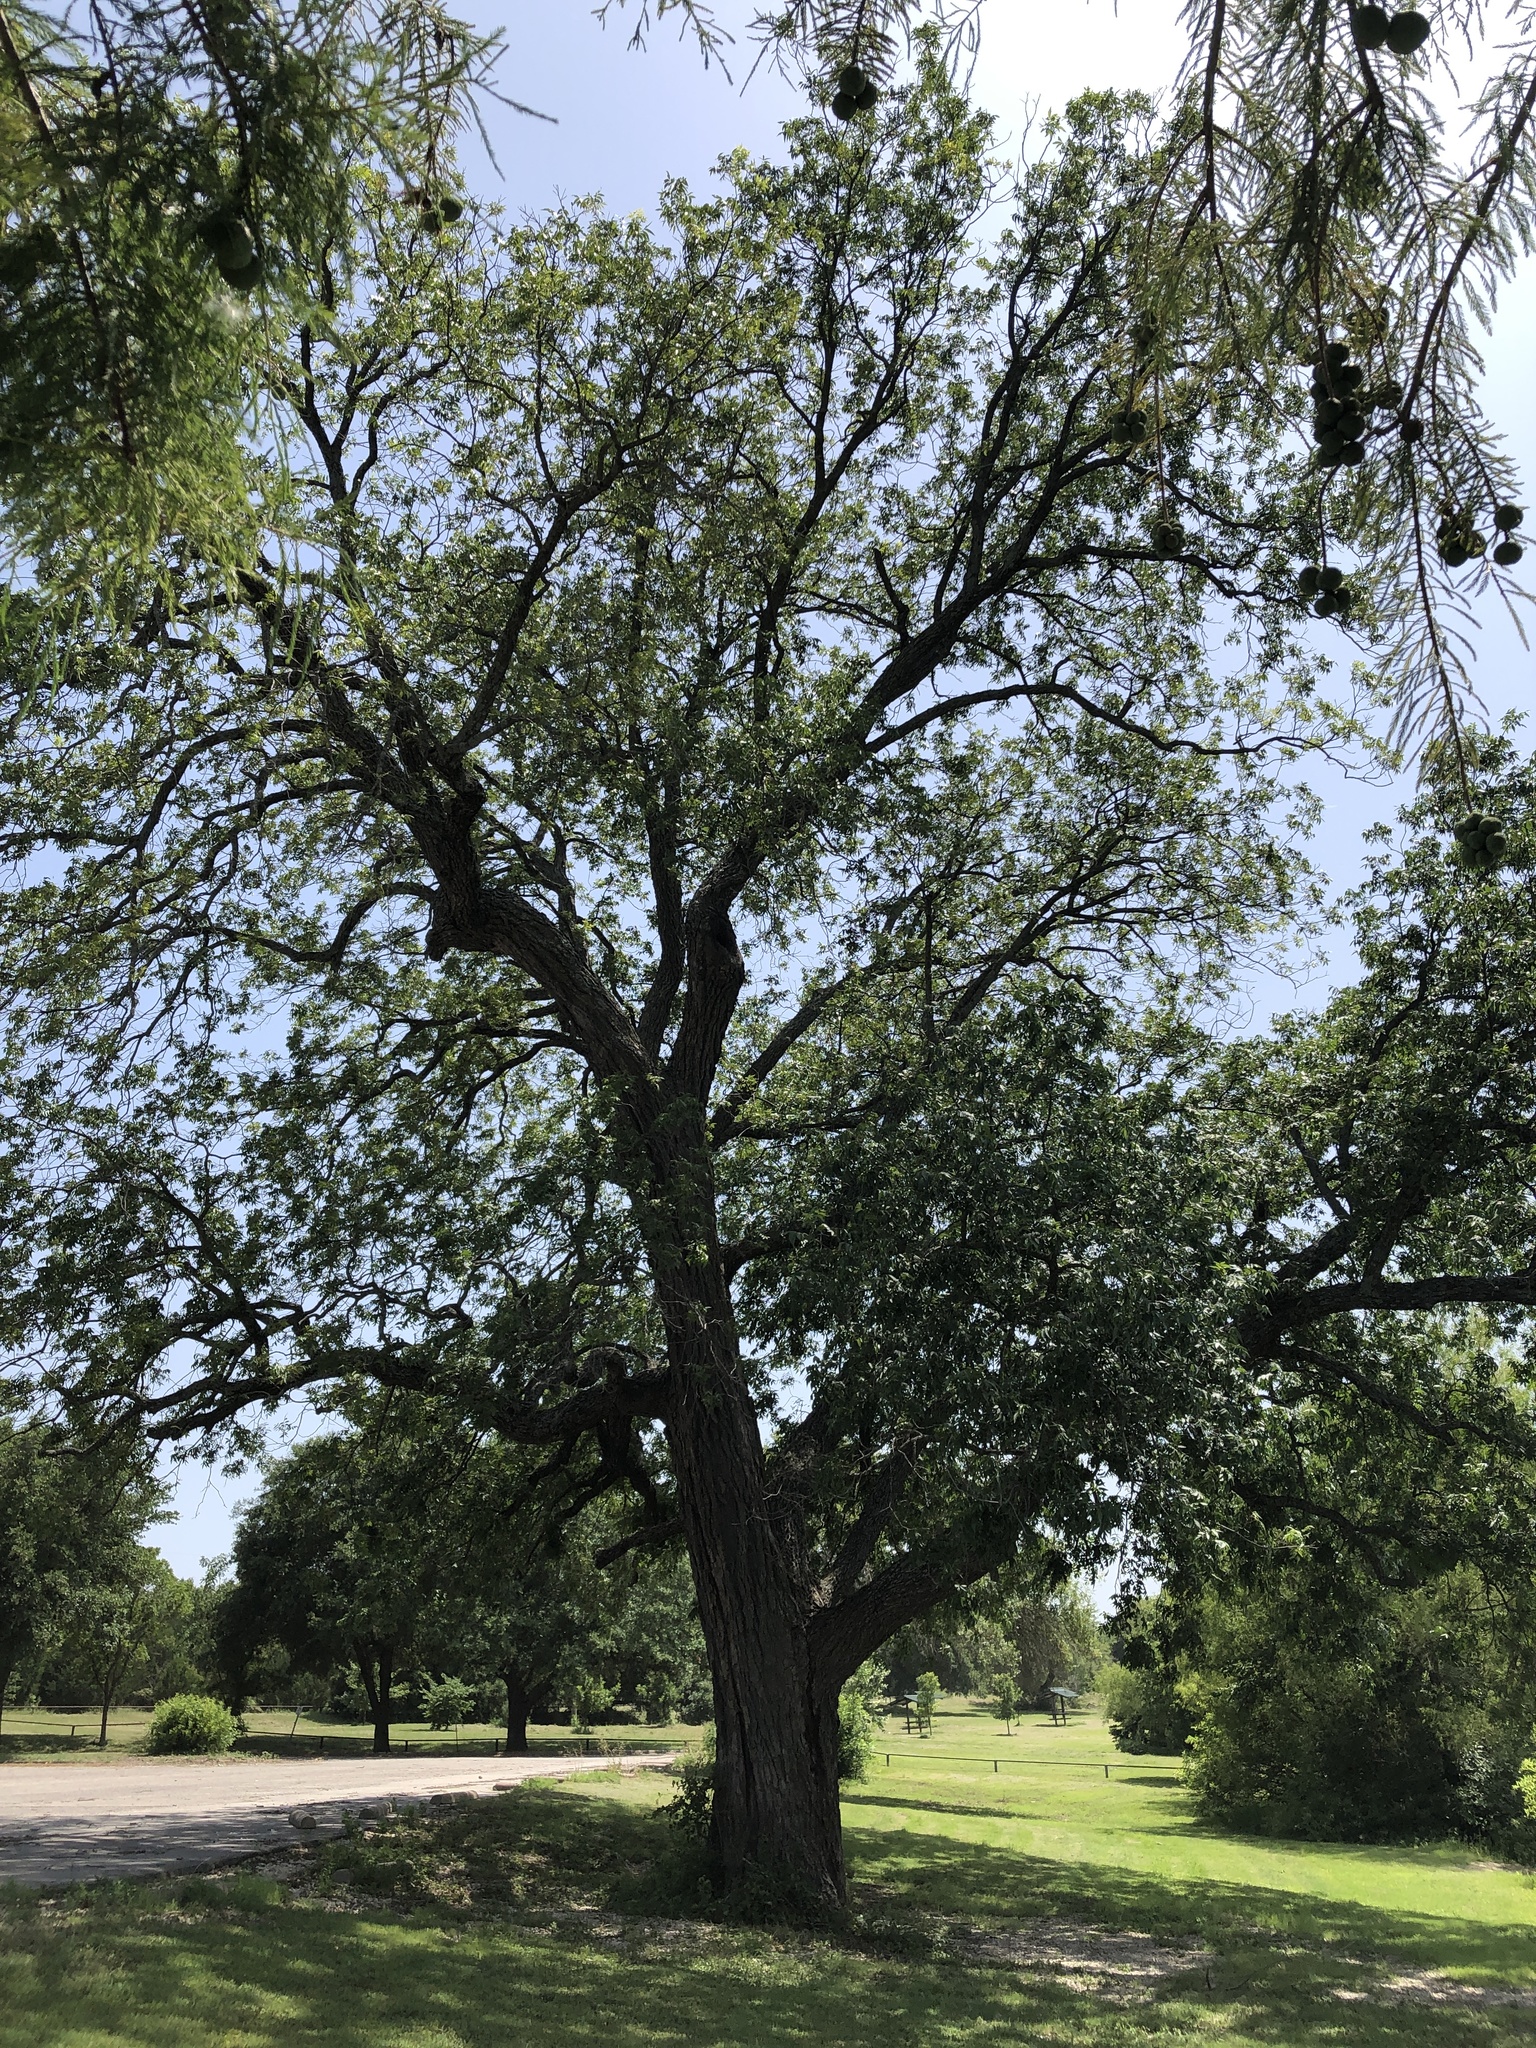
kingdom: Plantae
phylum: Tracheophyta
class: Magnoliopsida
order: Fagales
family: Juglandaceae
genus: Carya
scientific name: Carya illinoinensis
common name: Pecan
